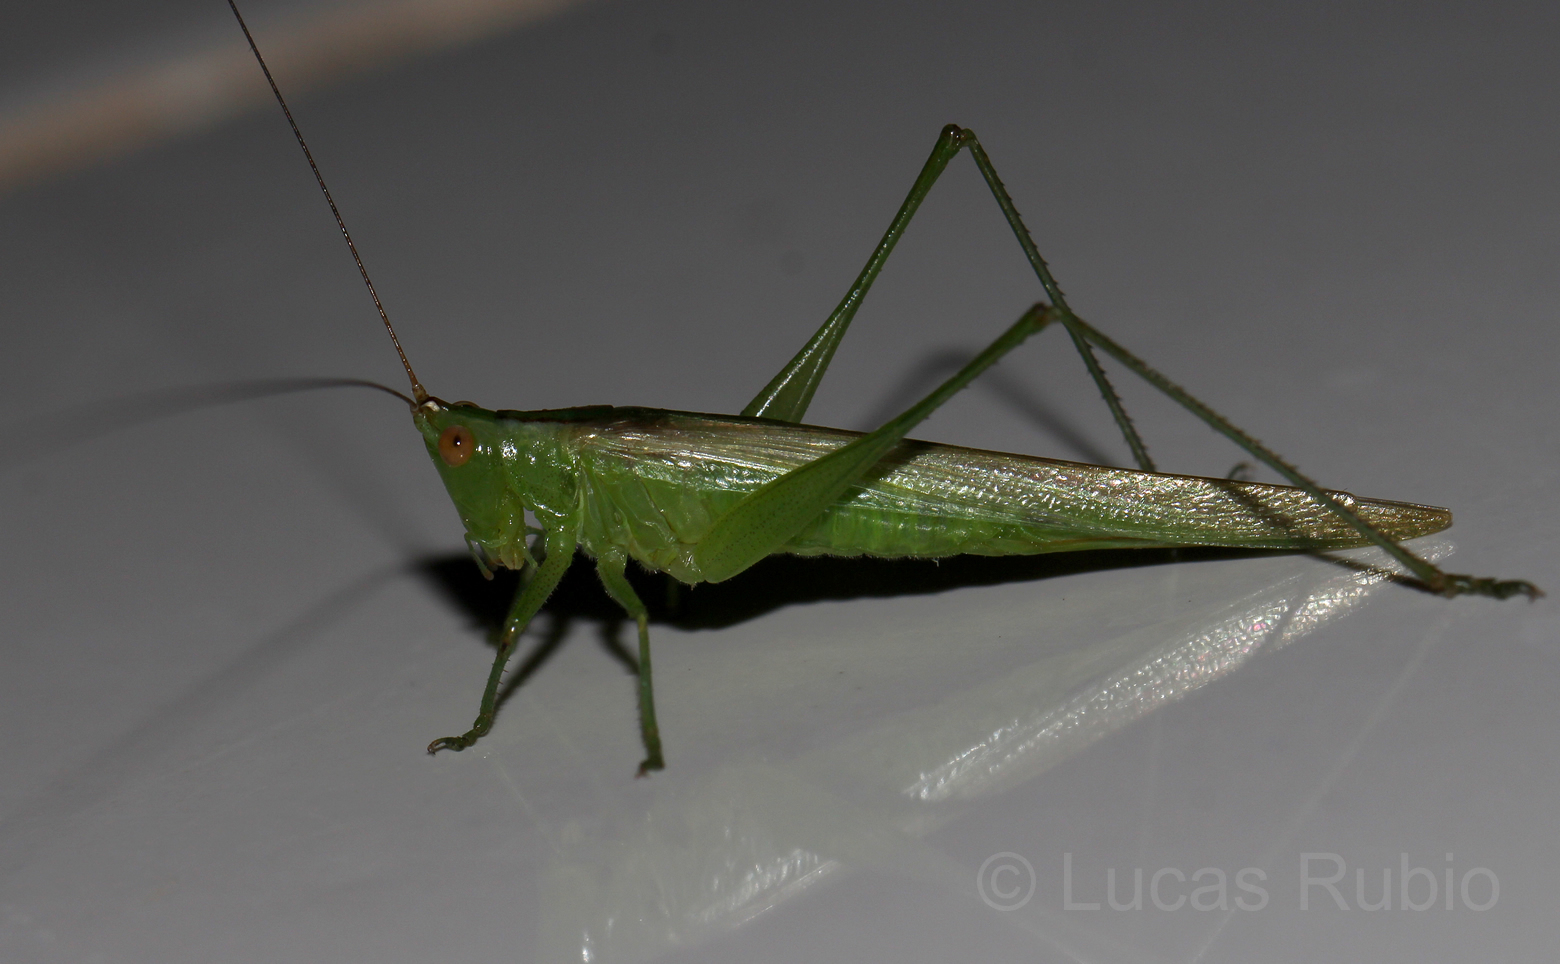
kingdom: Animalia
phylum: Arthropoda
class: Insecta
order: Orthoptera
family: Tettigoniidae
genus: Conocephalus
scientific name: Conocephalus longipes
